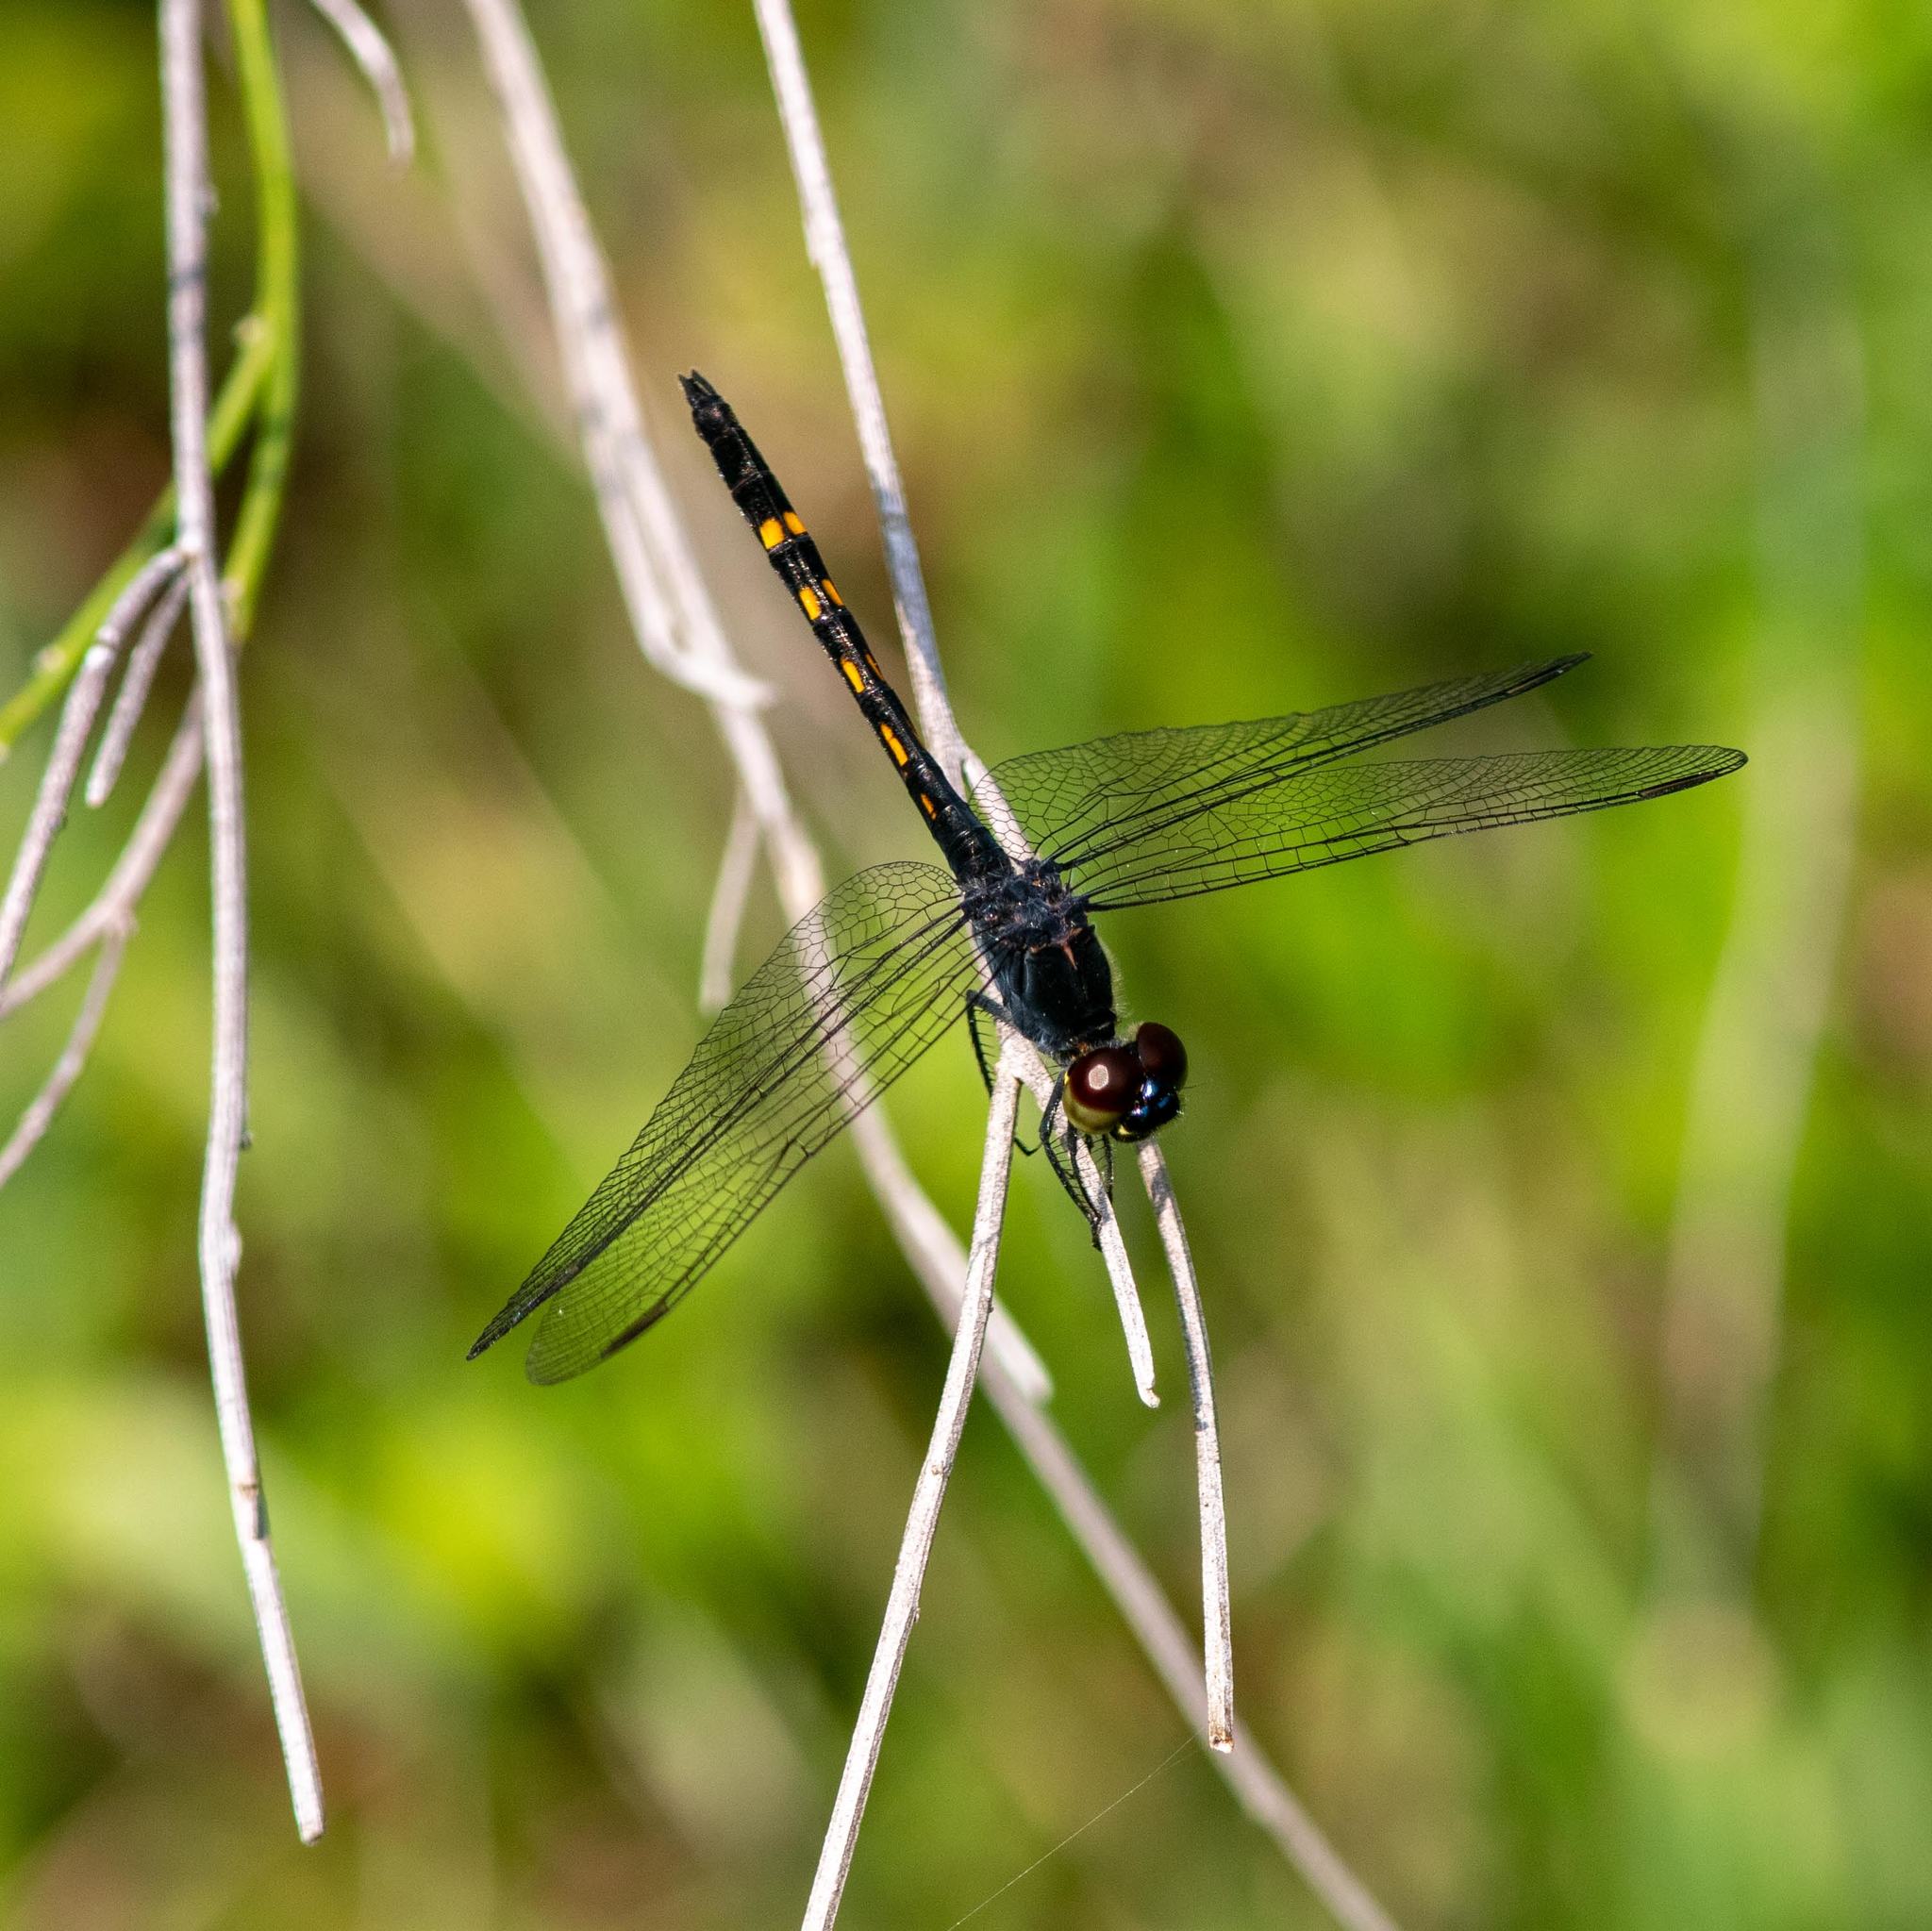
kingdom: Animalia
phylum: Arthropoda
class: Insecta
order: Odonata
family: Libellulidae
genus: Erythrodiplax
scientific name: Erythrodiplax berenice
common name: Seaside dragonlet
